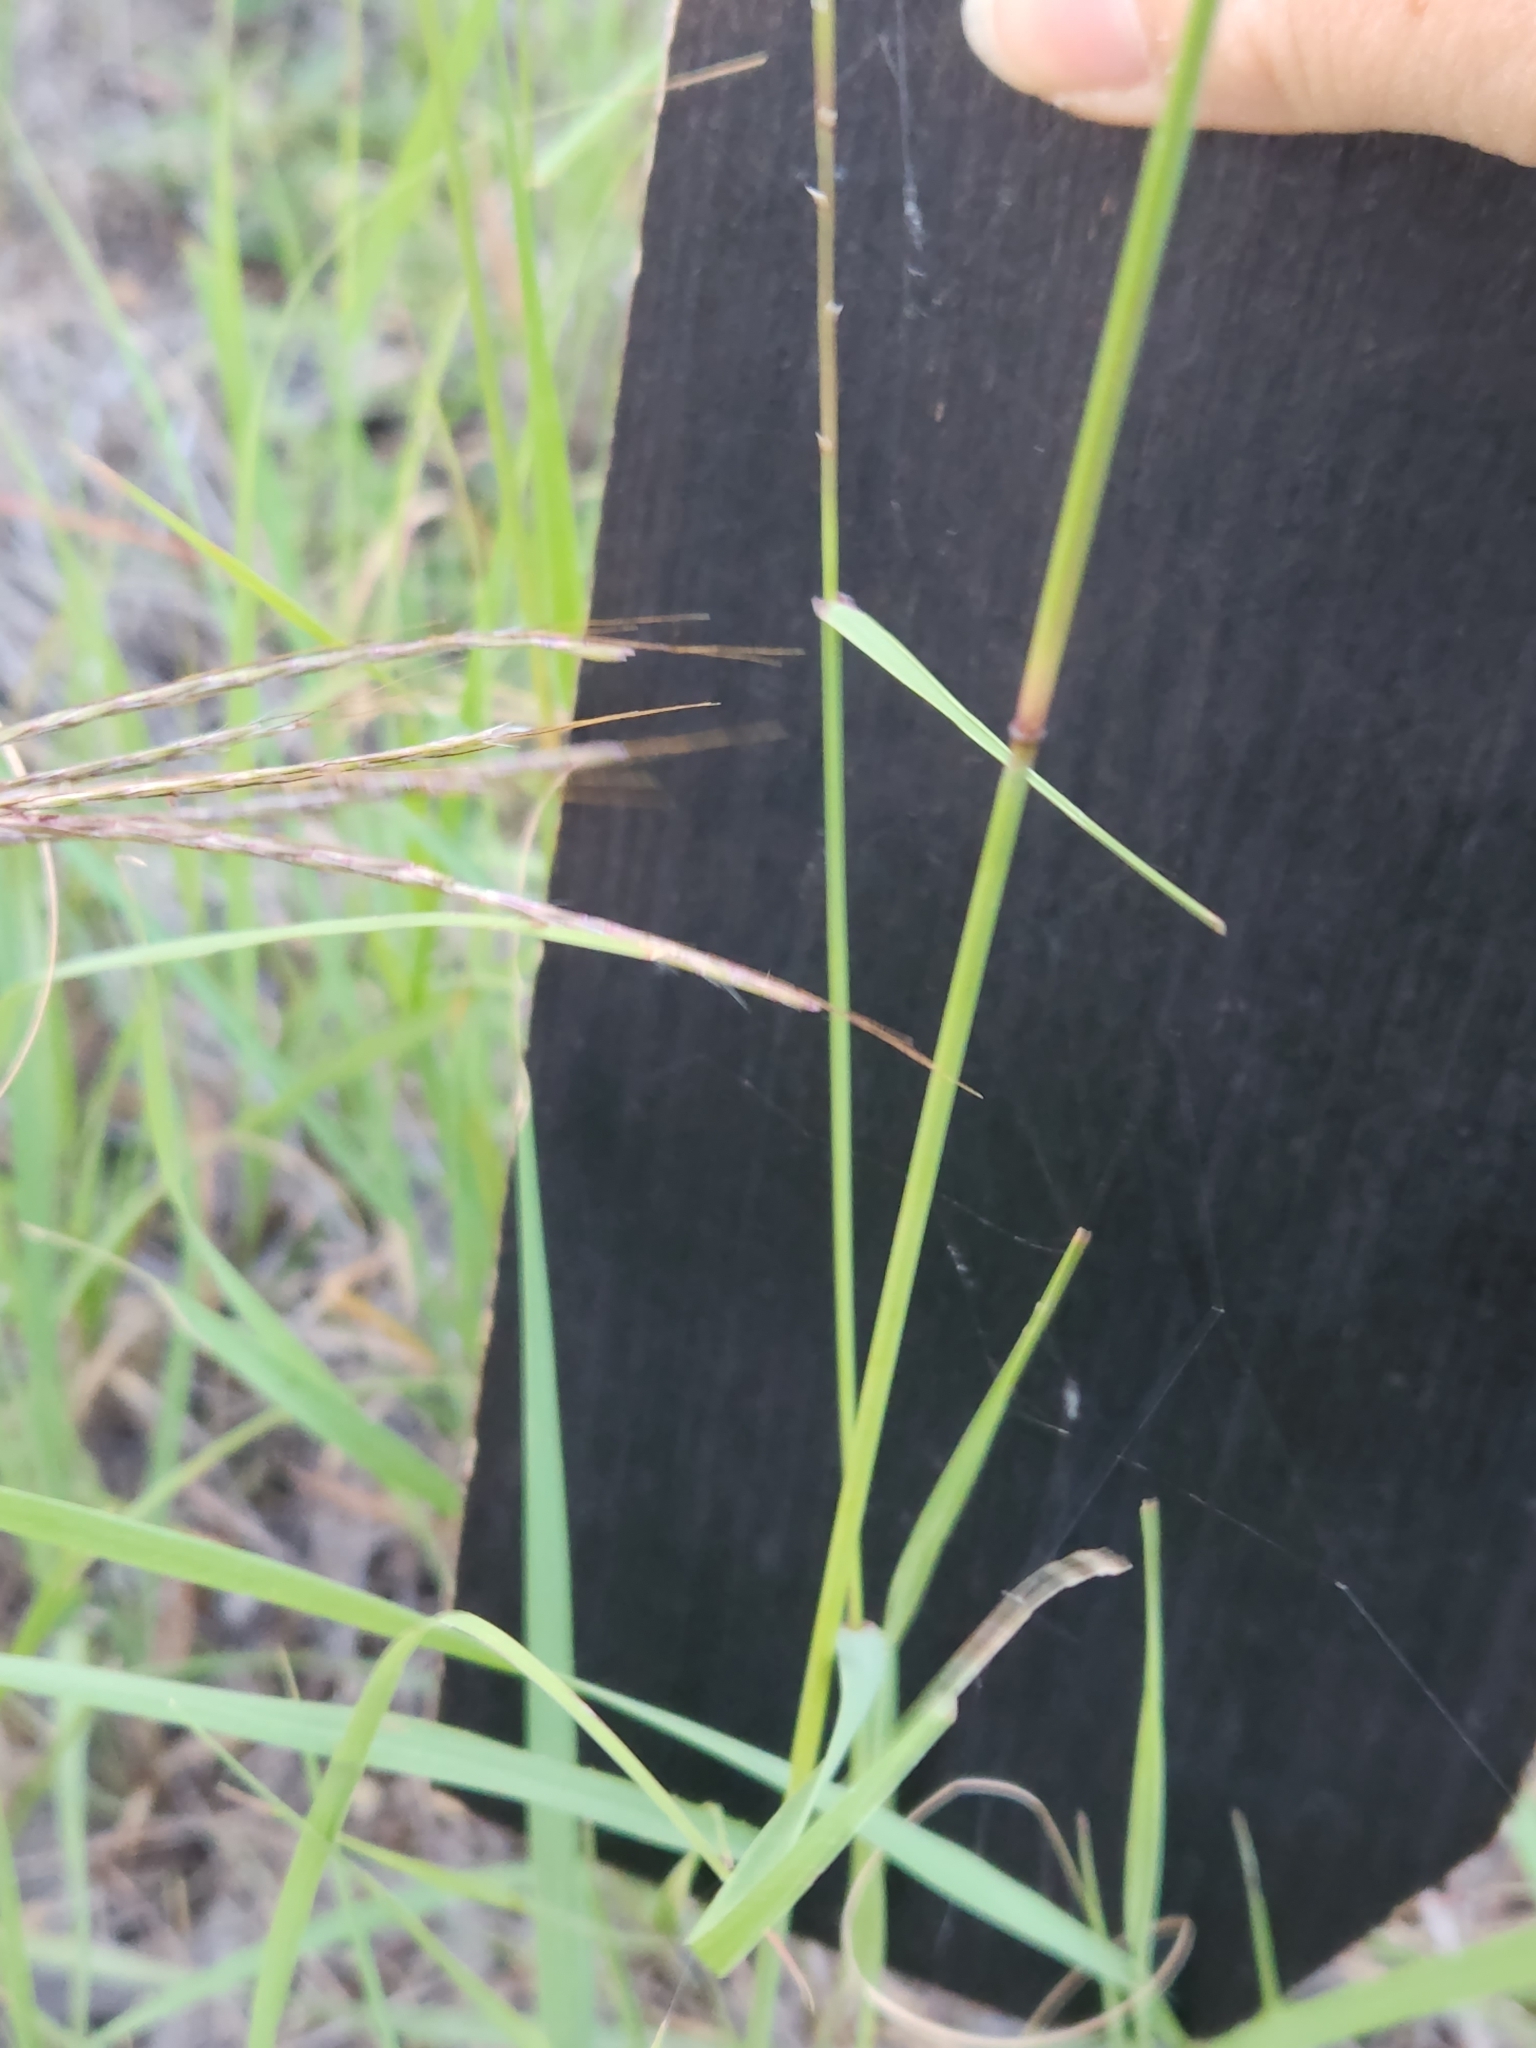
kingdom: Plantae
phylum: Tracheophyta
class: Liliopsida
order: Poales
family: Poaceae
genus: Bouteloua
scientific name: Bouteloua curtipendula
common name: Side-oats grama
